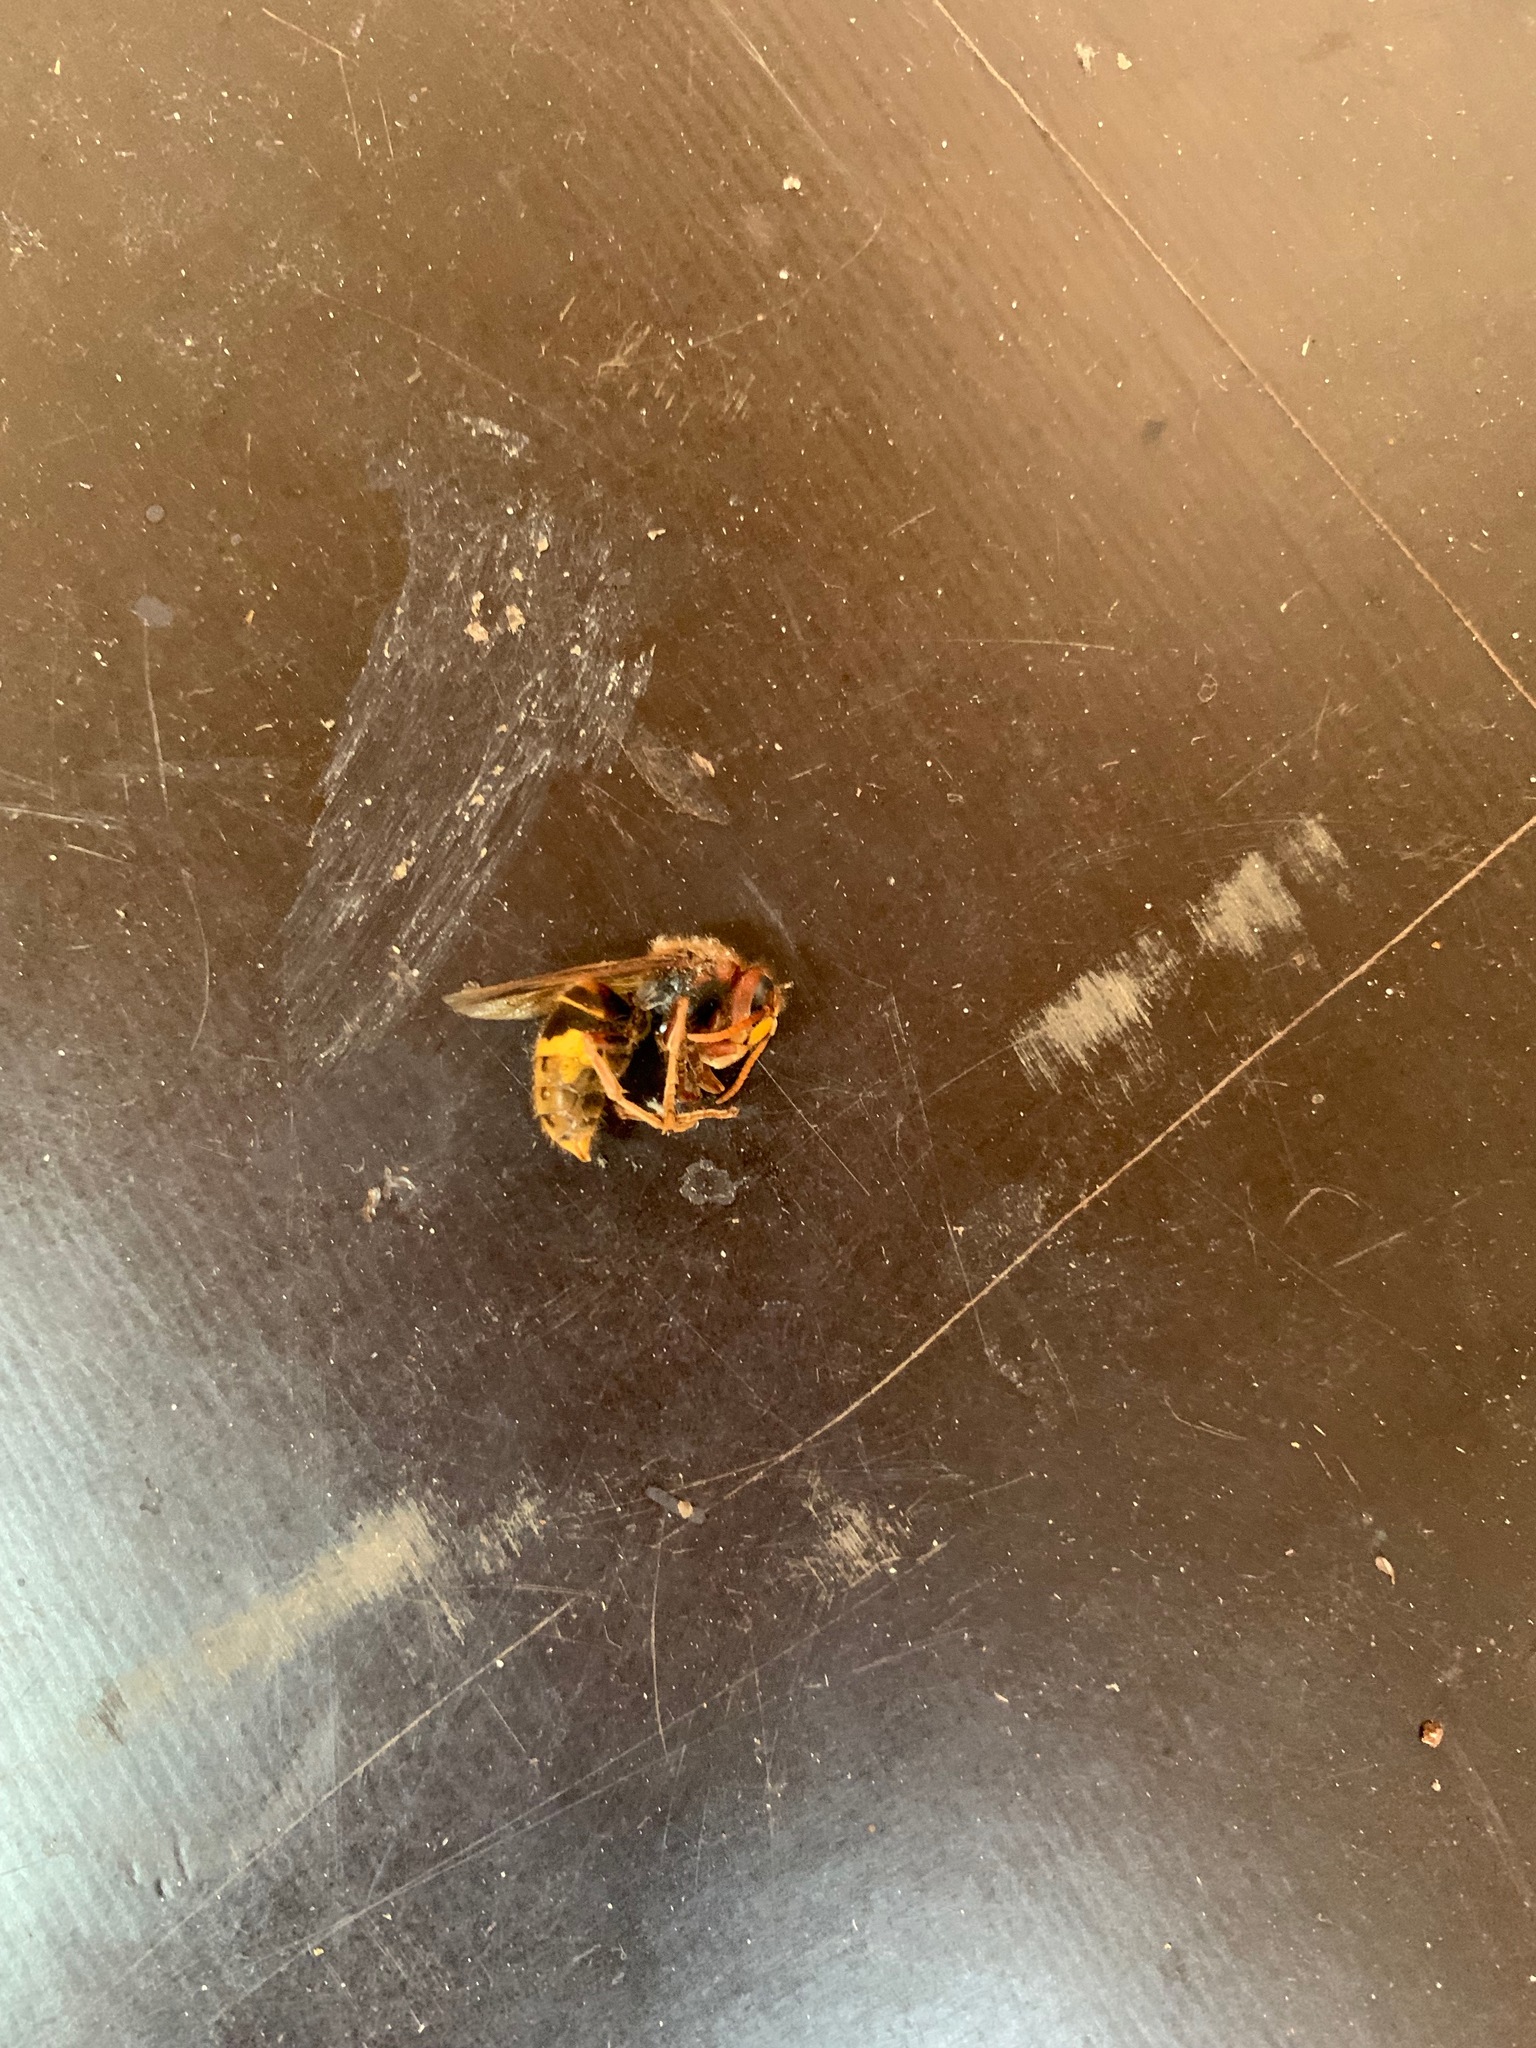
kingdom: Animalia
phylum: Arthropoda
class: Insecta
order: Hymenoptera
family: Vespidae
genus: Vespa
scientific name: Vespa crabro
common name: Hornet
